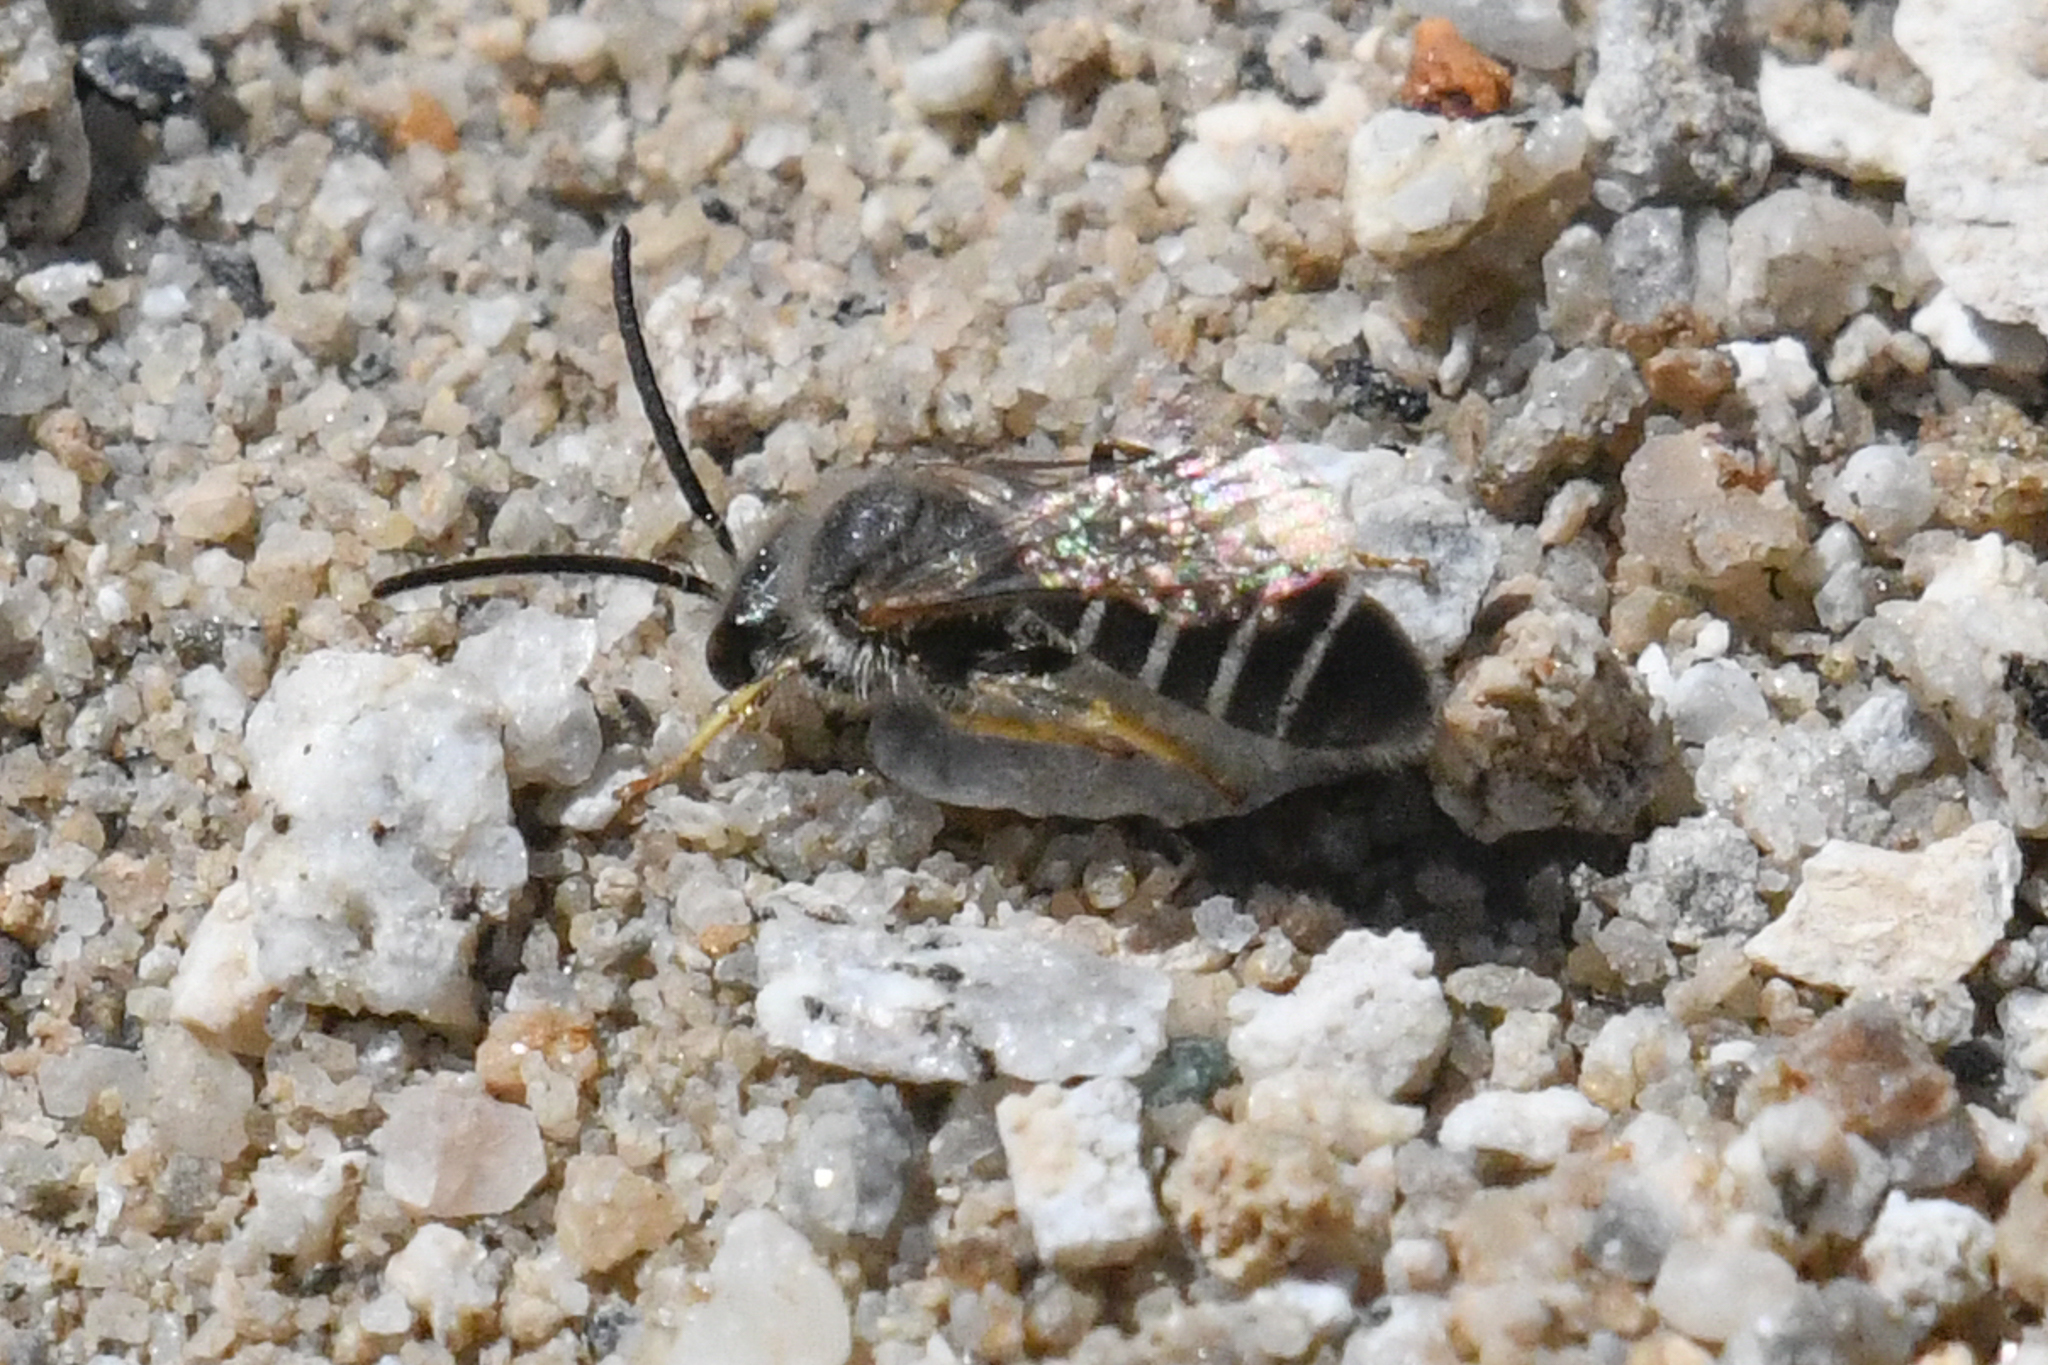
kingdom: Animalia
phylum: Arthropoda
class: Insecta
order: Hymenoptera
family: Halictidae
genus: Halictus
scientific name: Halictus rubicundus
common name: Orange-legged furrow bee
